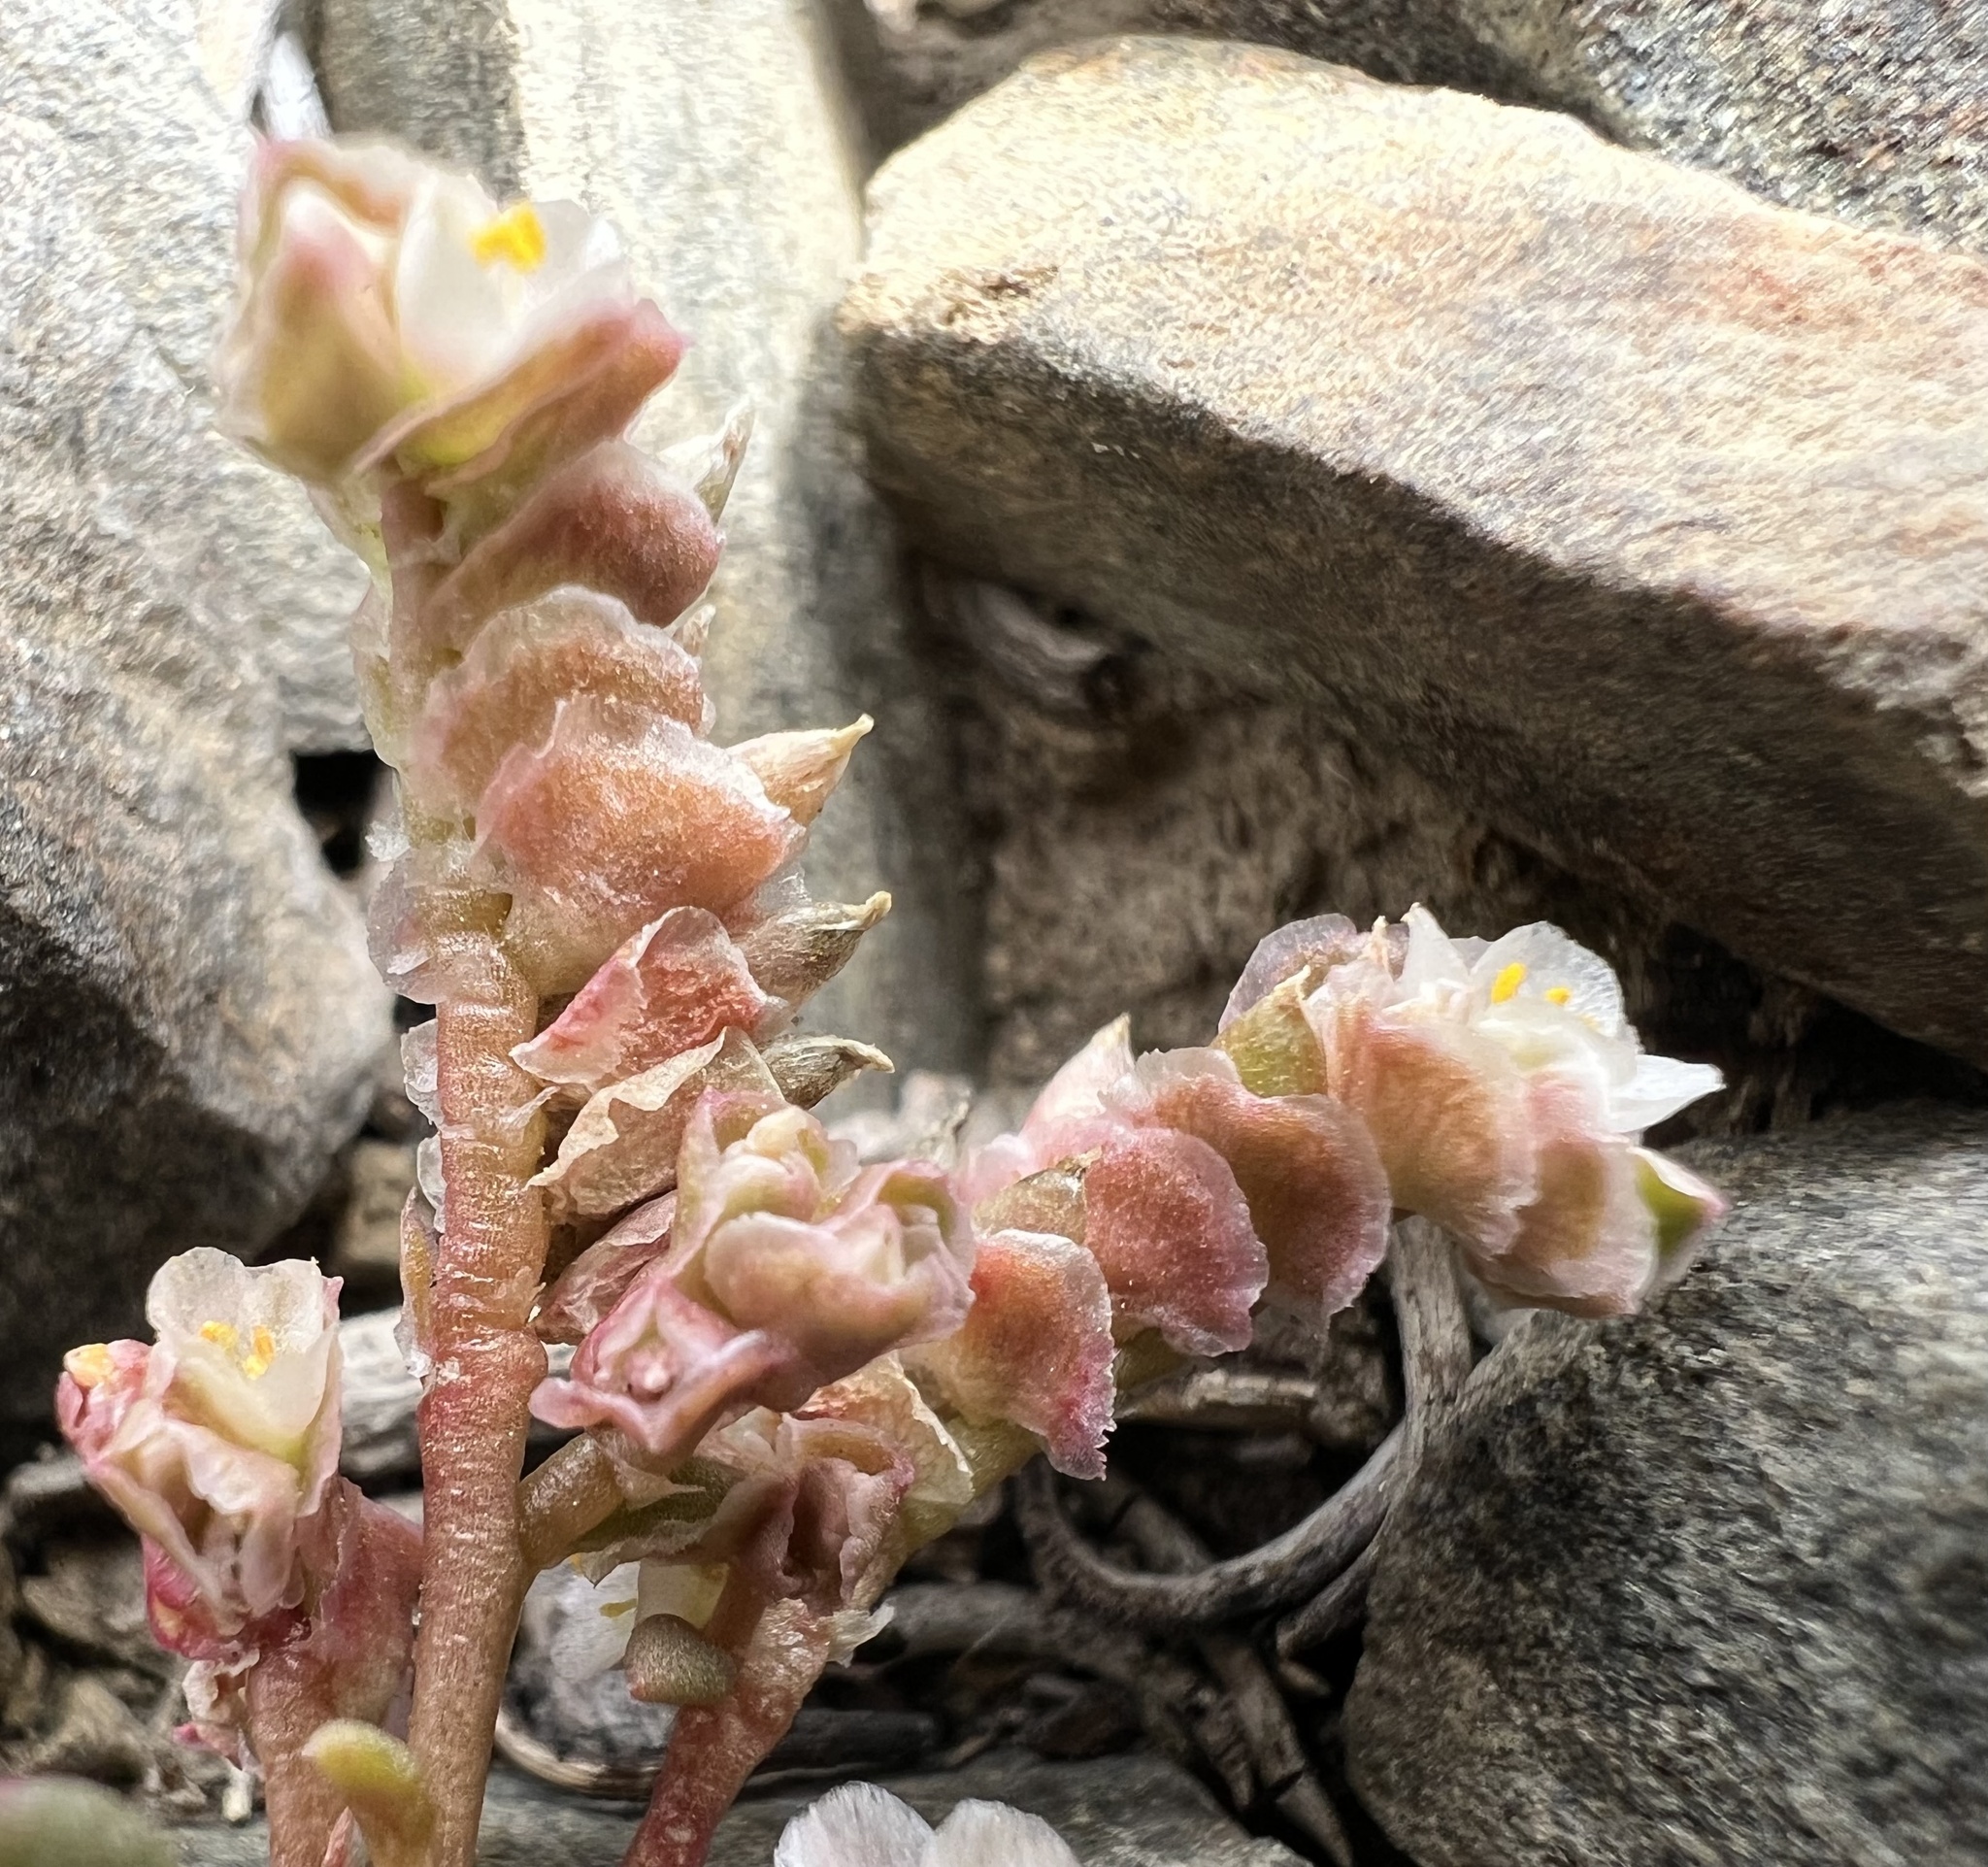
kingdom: Plantae
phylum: Tracheophyta
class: Magnoliopsida
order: Caryophyllales
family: Montiaceae
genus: Calyptridium
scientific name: Calyptridium nevadense
